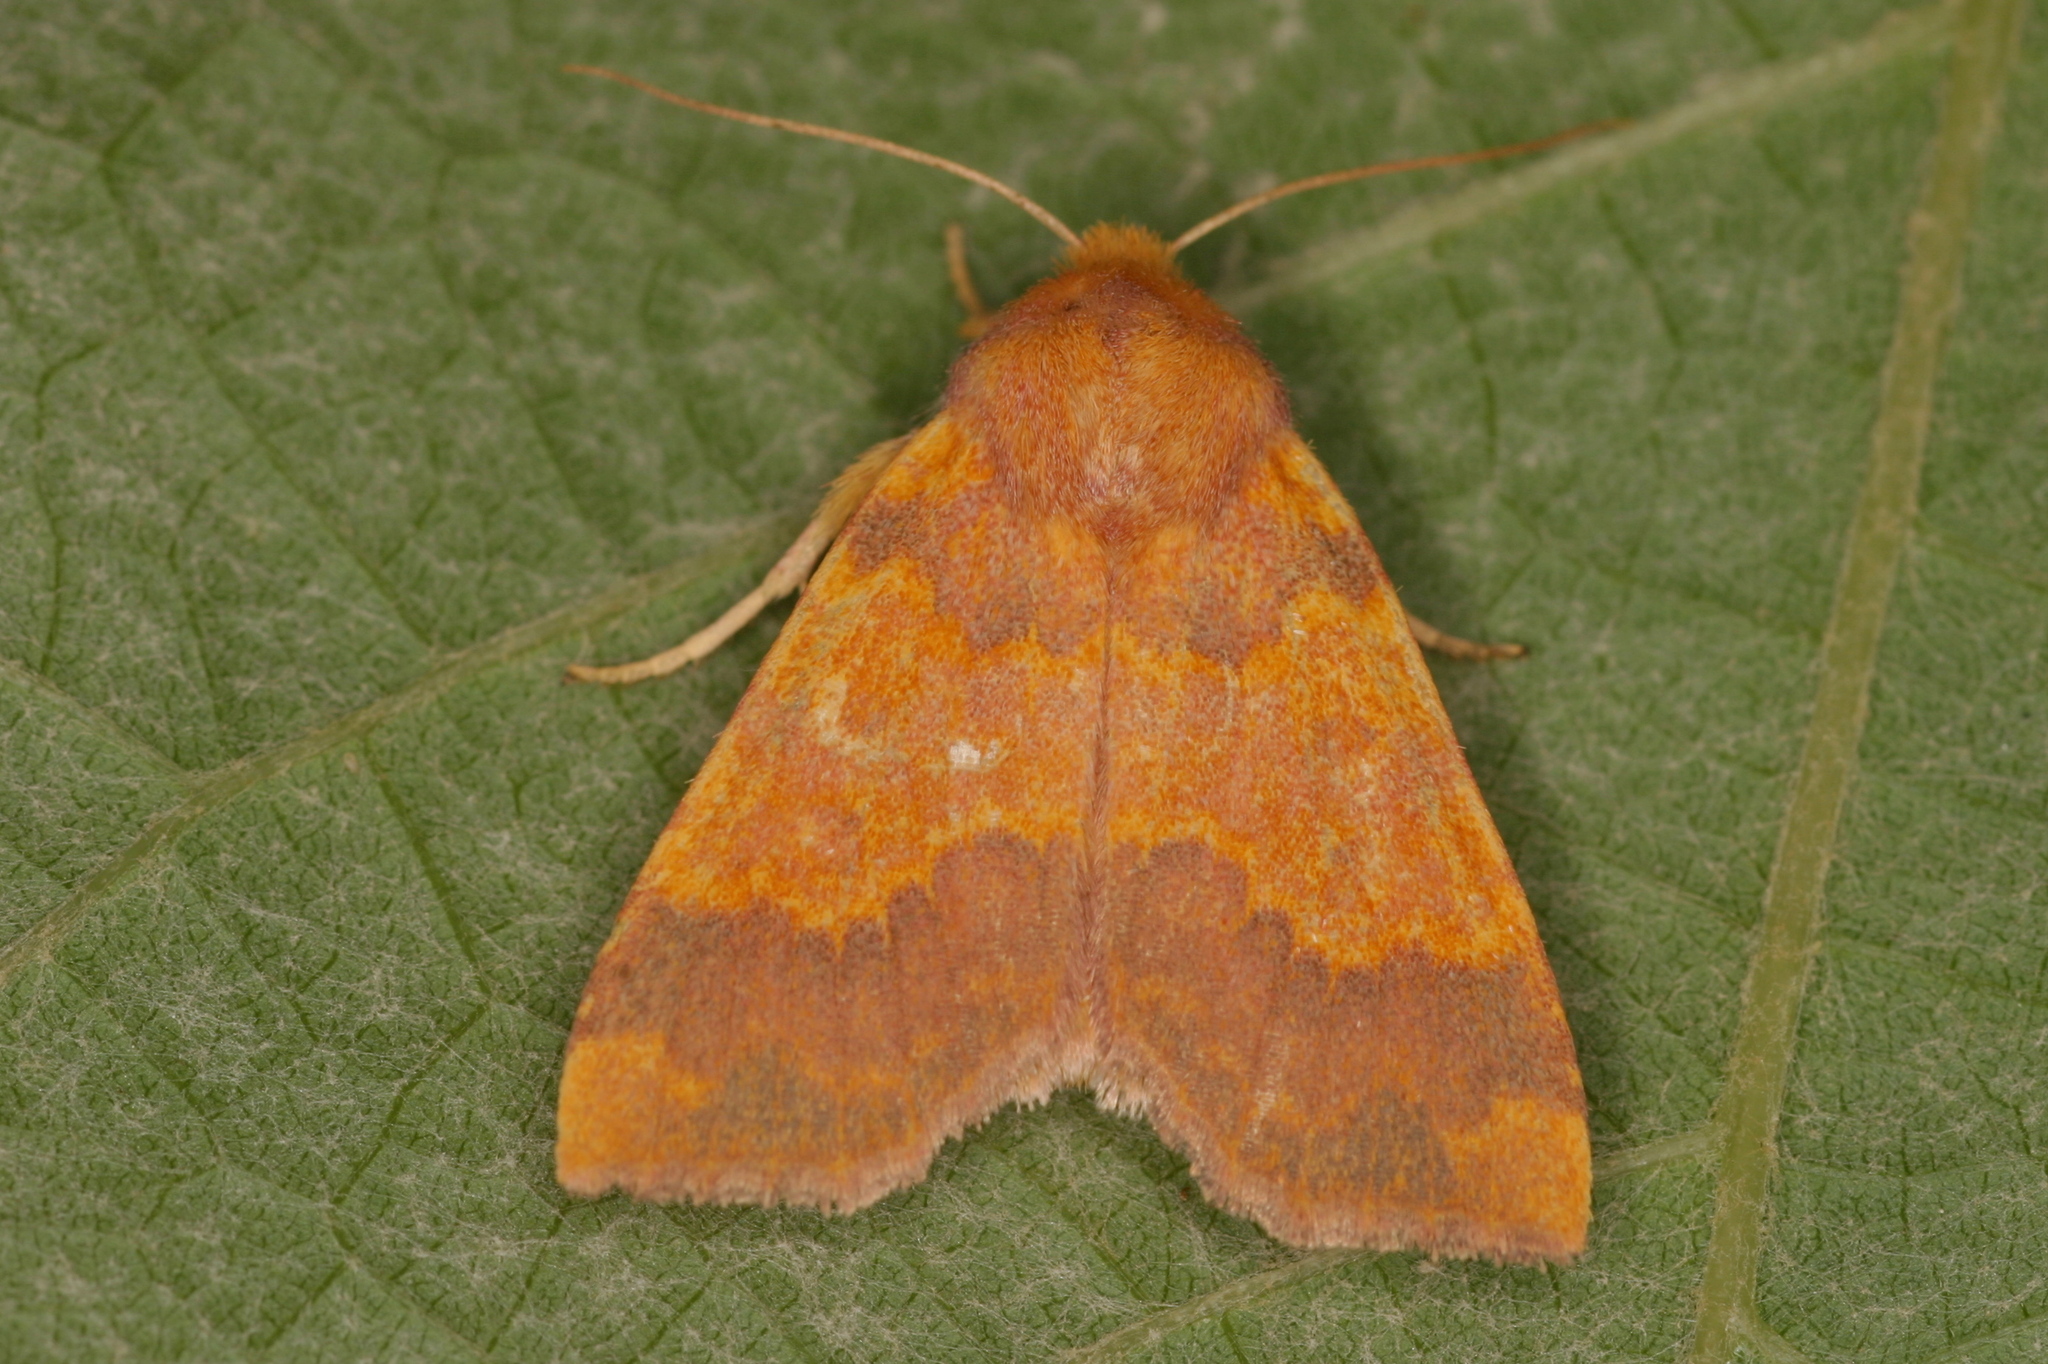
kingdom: Animalia
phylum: Arthropoda
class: Insecta
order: Lepidoptera
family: Noctuidae
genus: Tiliacea
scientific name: Tiliacea aurago
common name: Barred sallow
